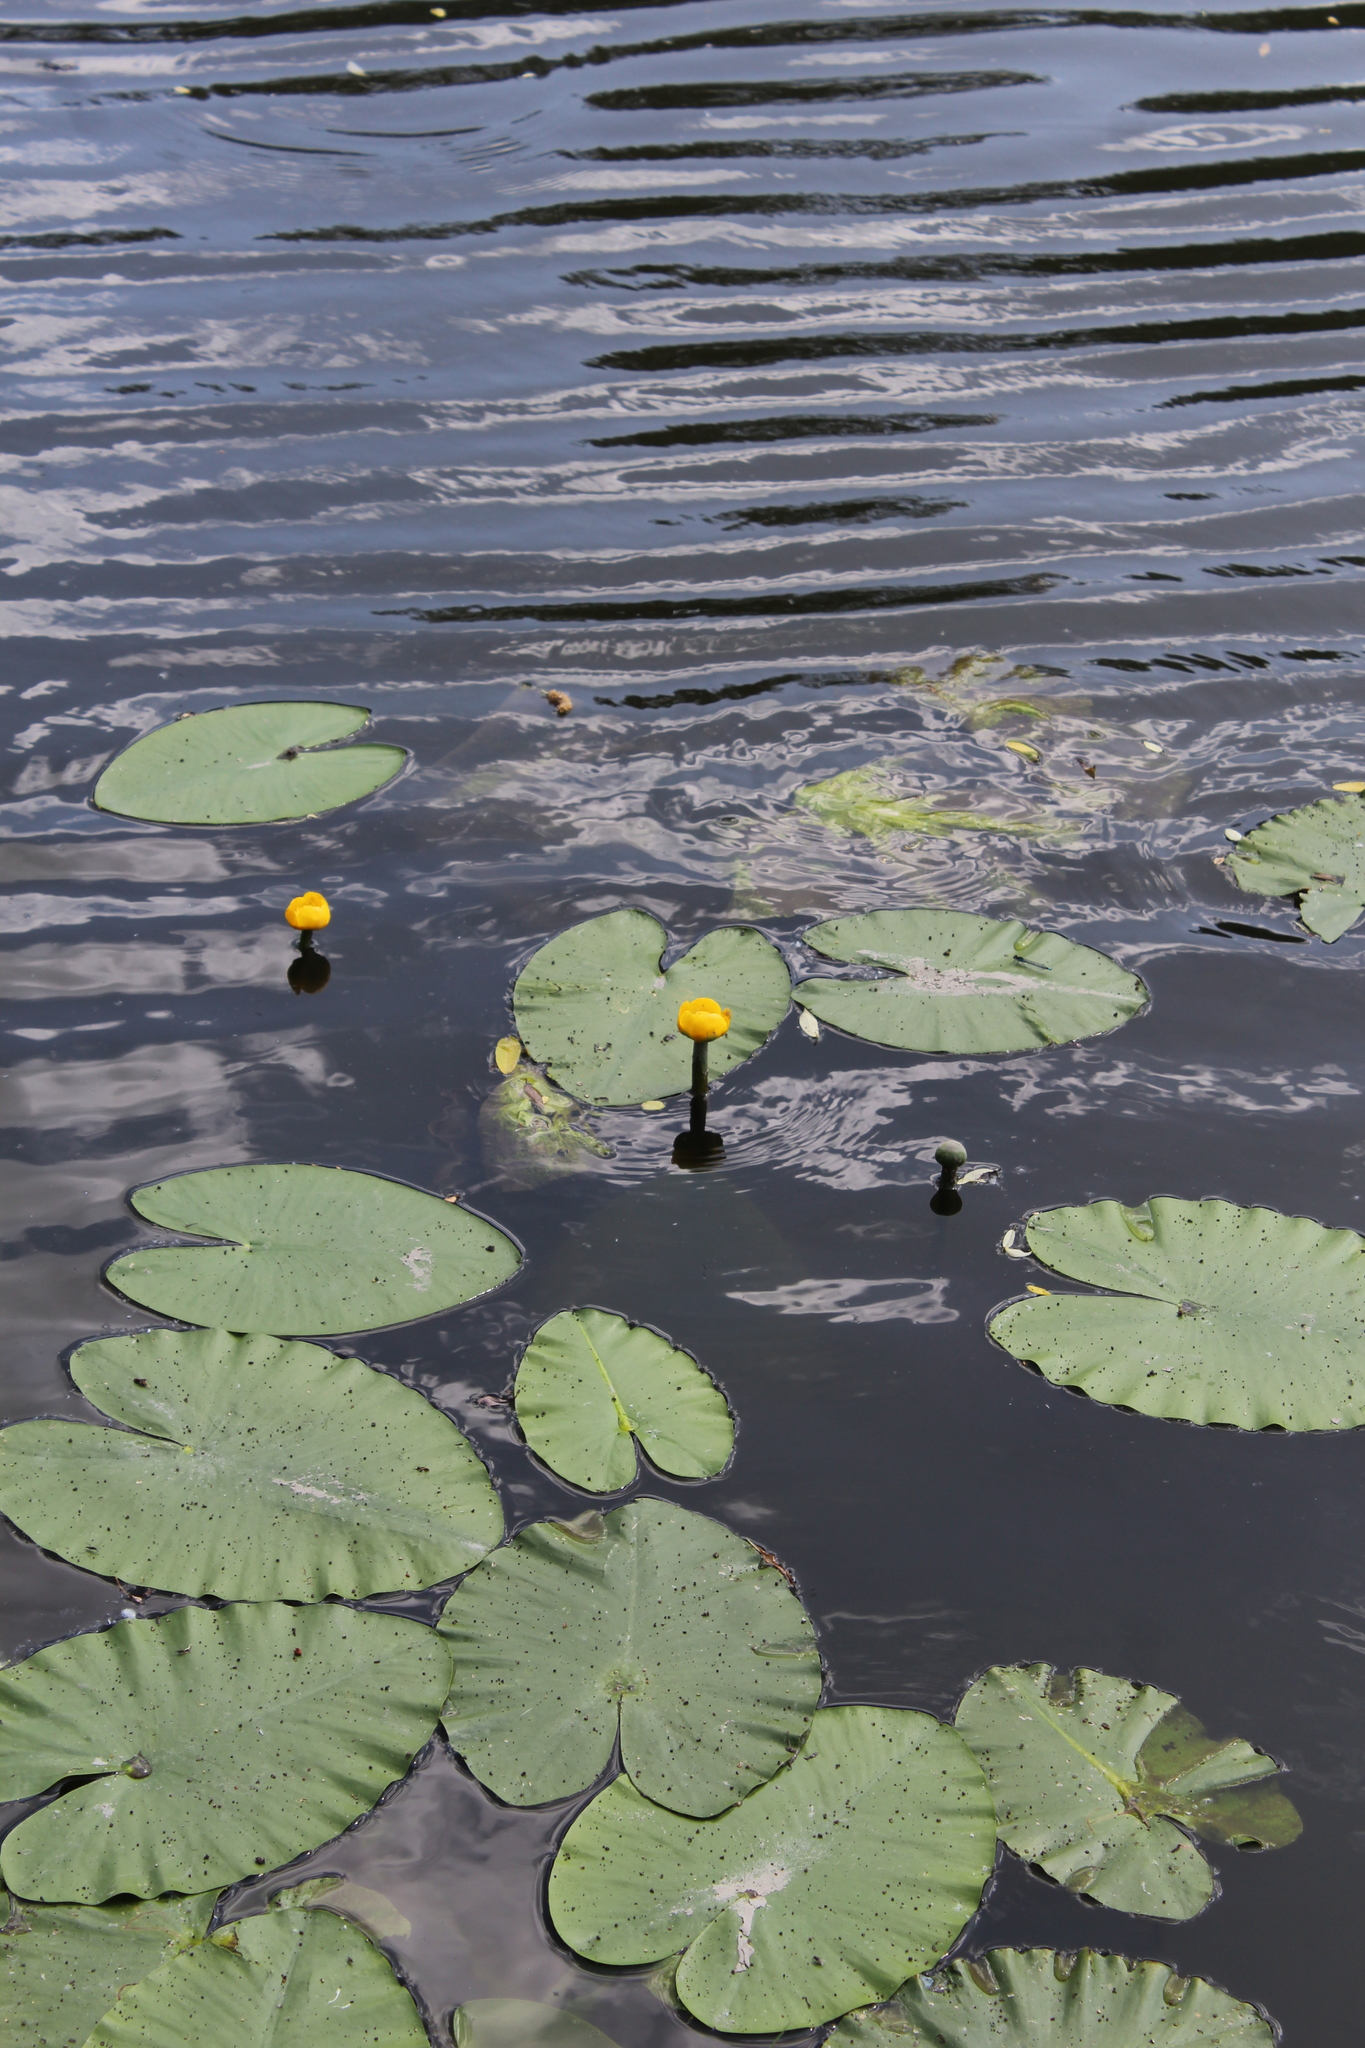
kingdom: Plantae
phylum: Tracheophyta
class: Magnoliopsida
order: Nymphaeales
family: Nymphaeaceae
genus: Nuphar
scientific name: Nuphar lutea
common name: Yellow water-lily
